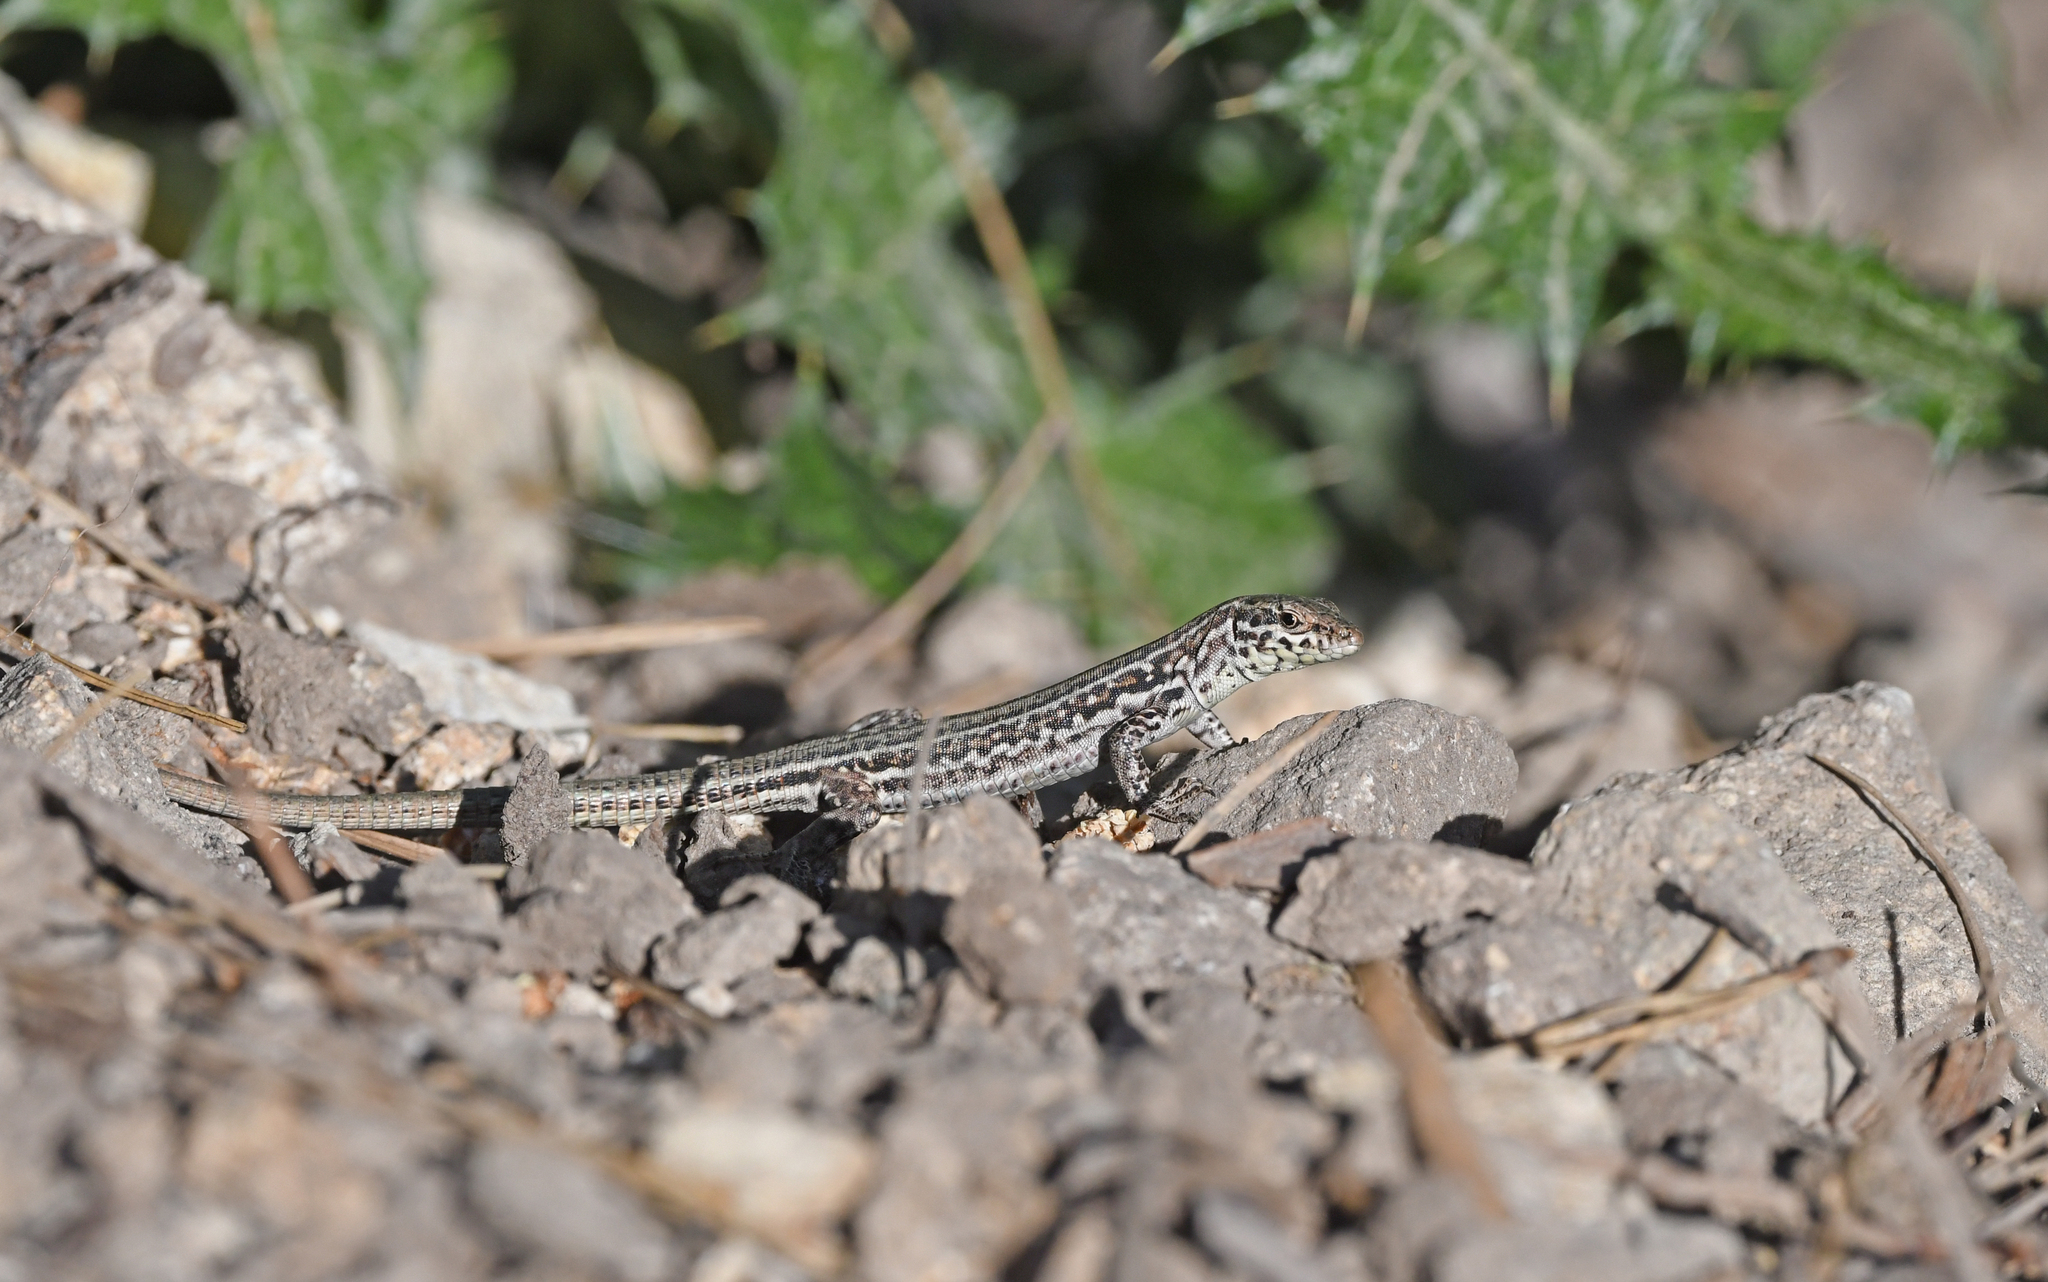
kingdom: Animalia
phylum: Chordata
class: Squamata
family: Lacertidae
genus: Podarcis
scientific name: Podarcis tiliguerta
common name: Tyrrhenian wall lizard
